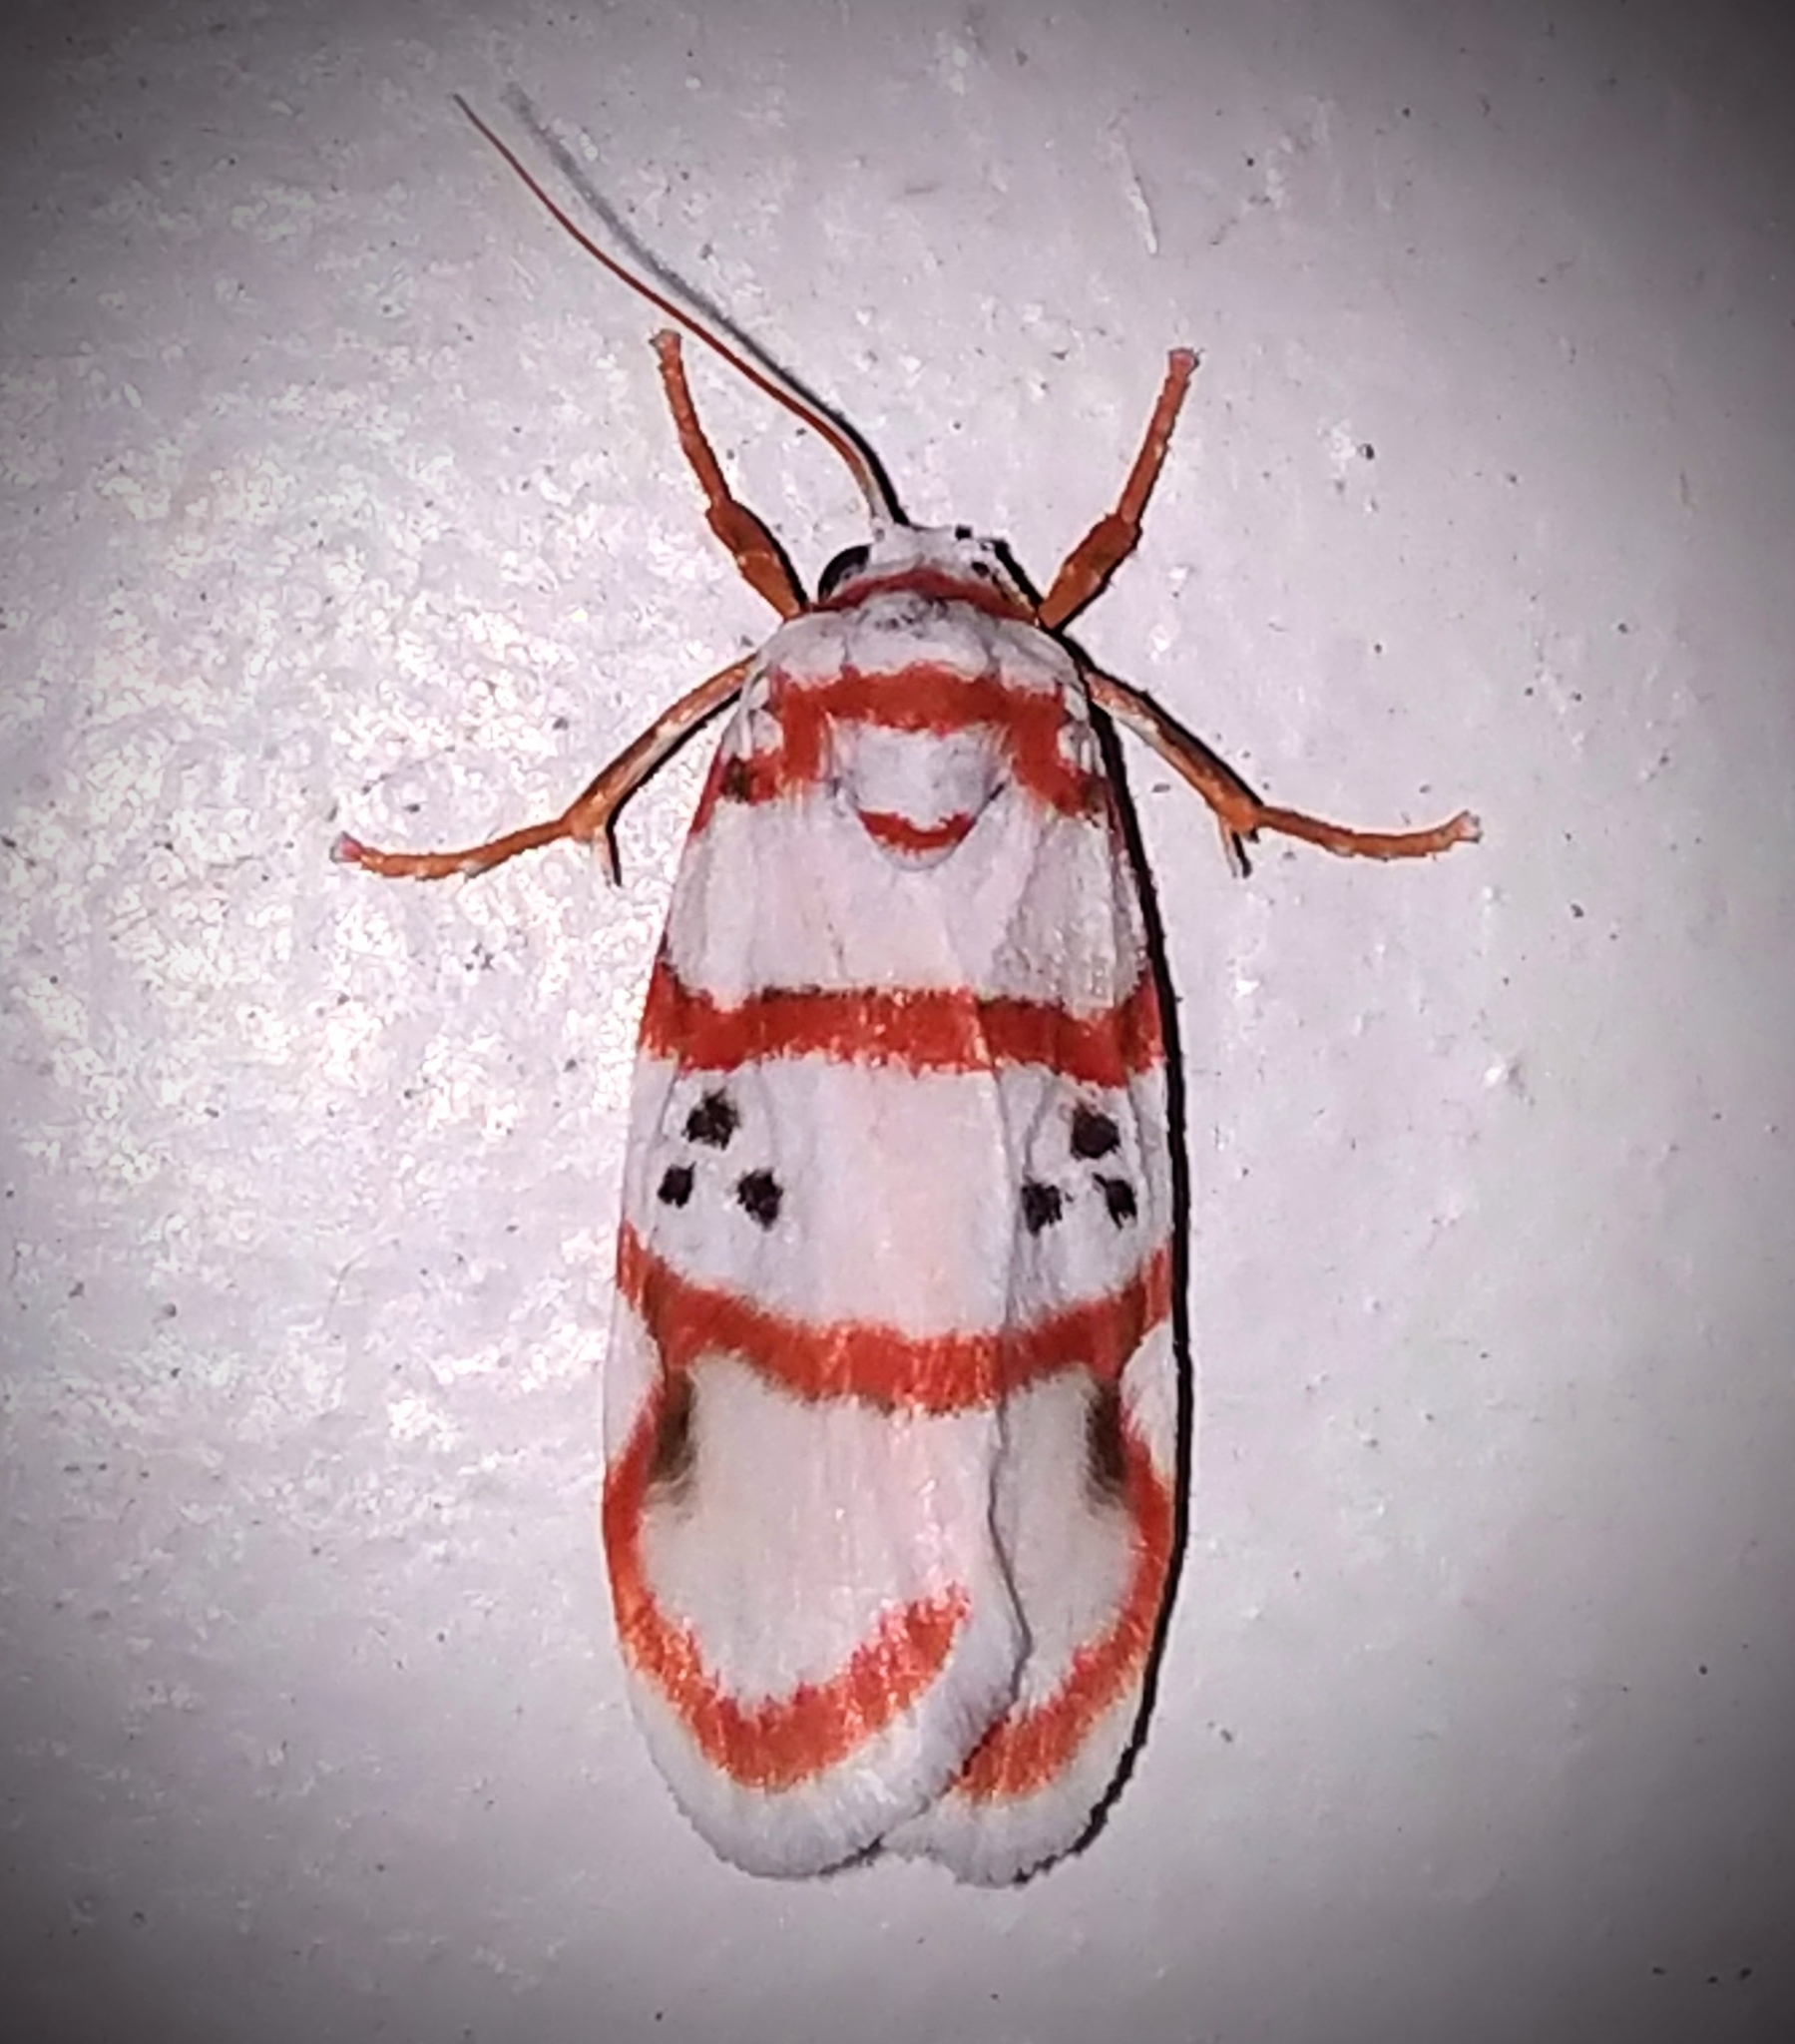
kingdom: Animalia
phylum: Arthropoda
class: Insecta
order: Lepidoptera
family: Erebidae
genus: Cyana
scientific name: Cyana peregrina
